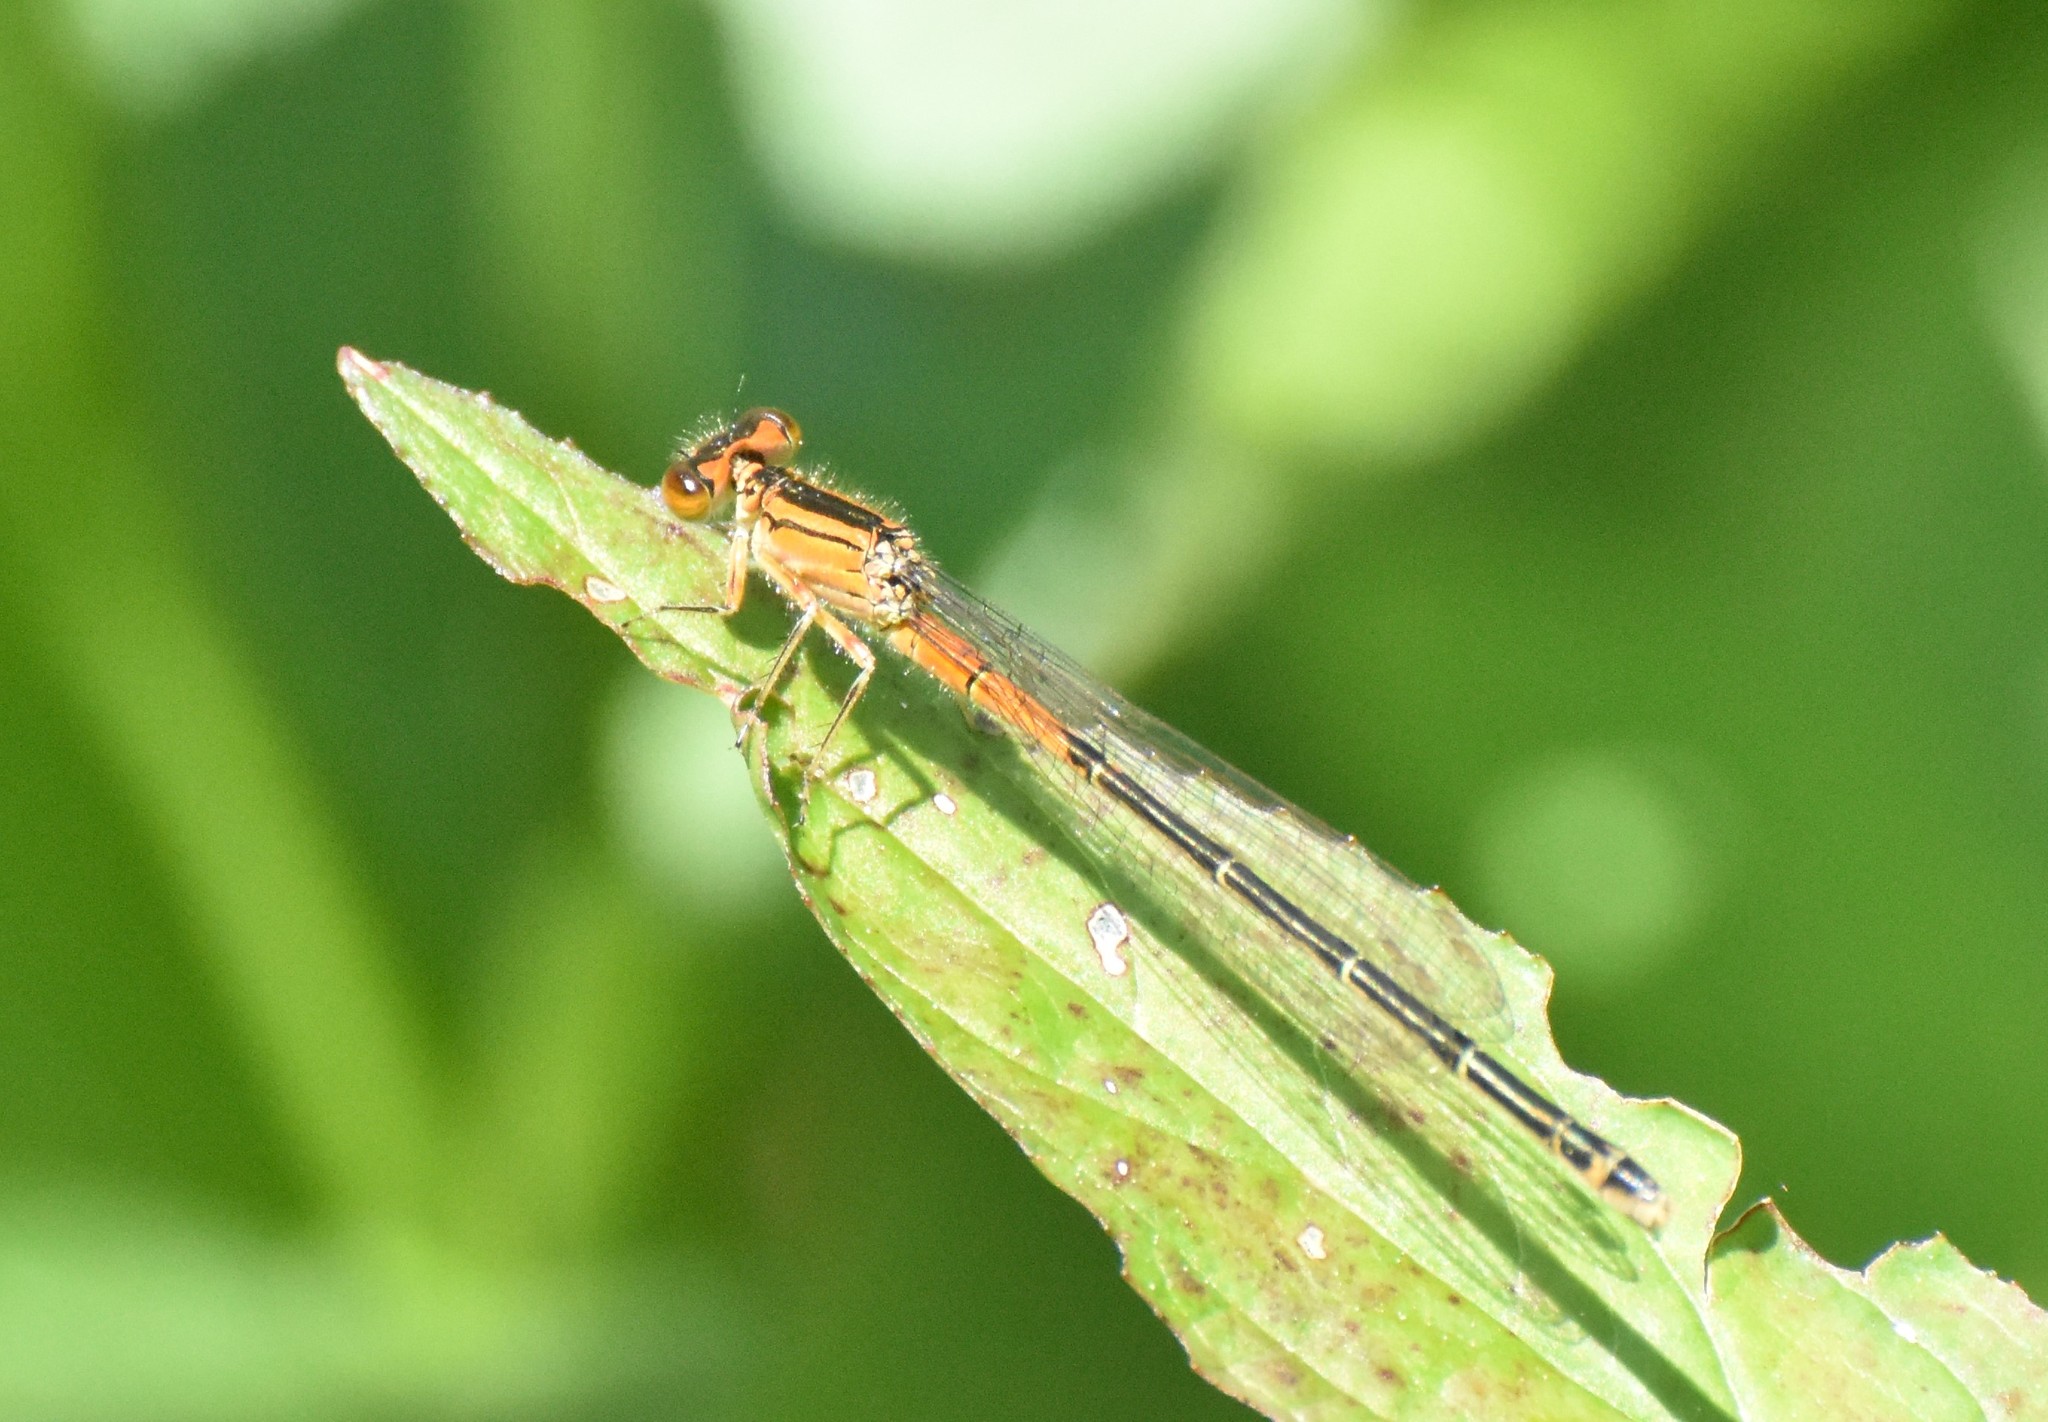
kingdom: Animalia
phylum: Arthropoda
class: Insecta
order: Odonata
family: Coenagrionidae
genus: Ischnura
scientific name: Ischnura verticalis
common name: Eastern forktail
